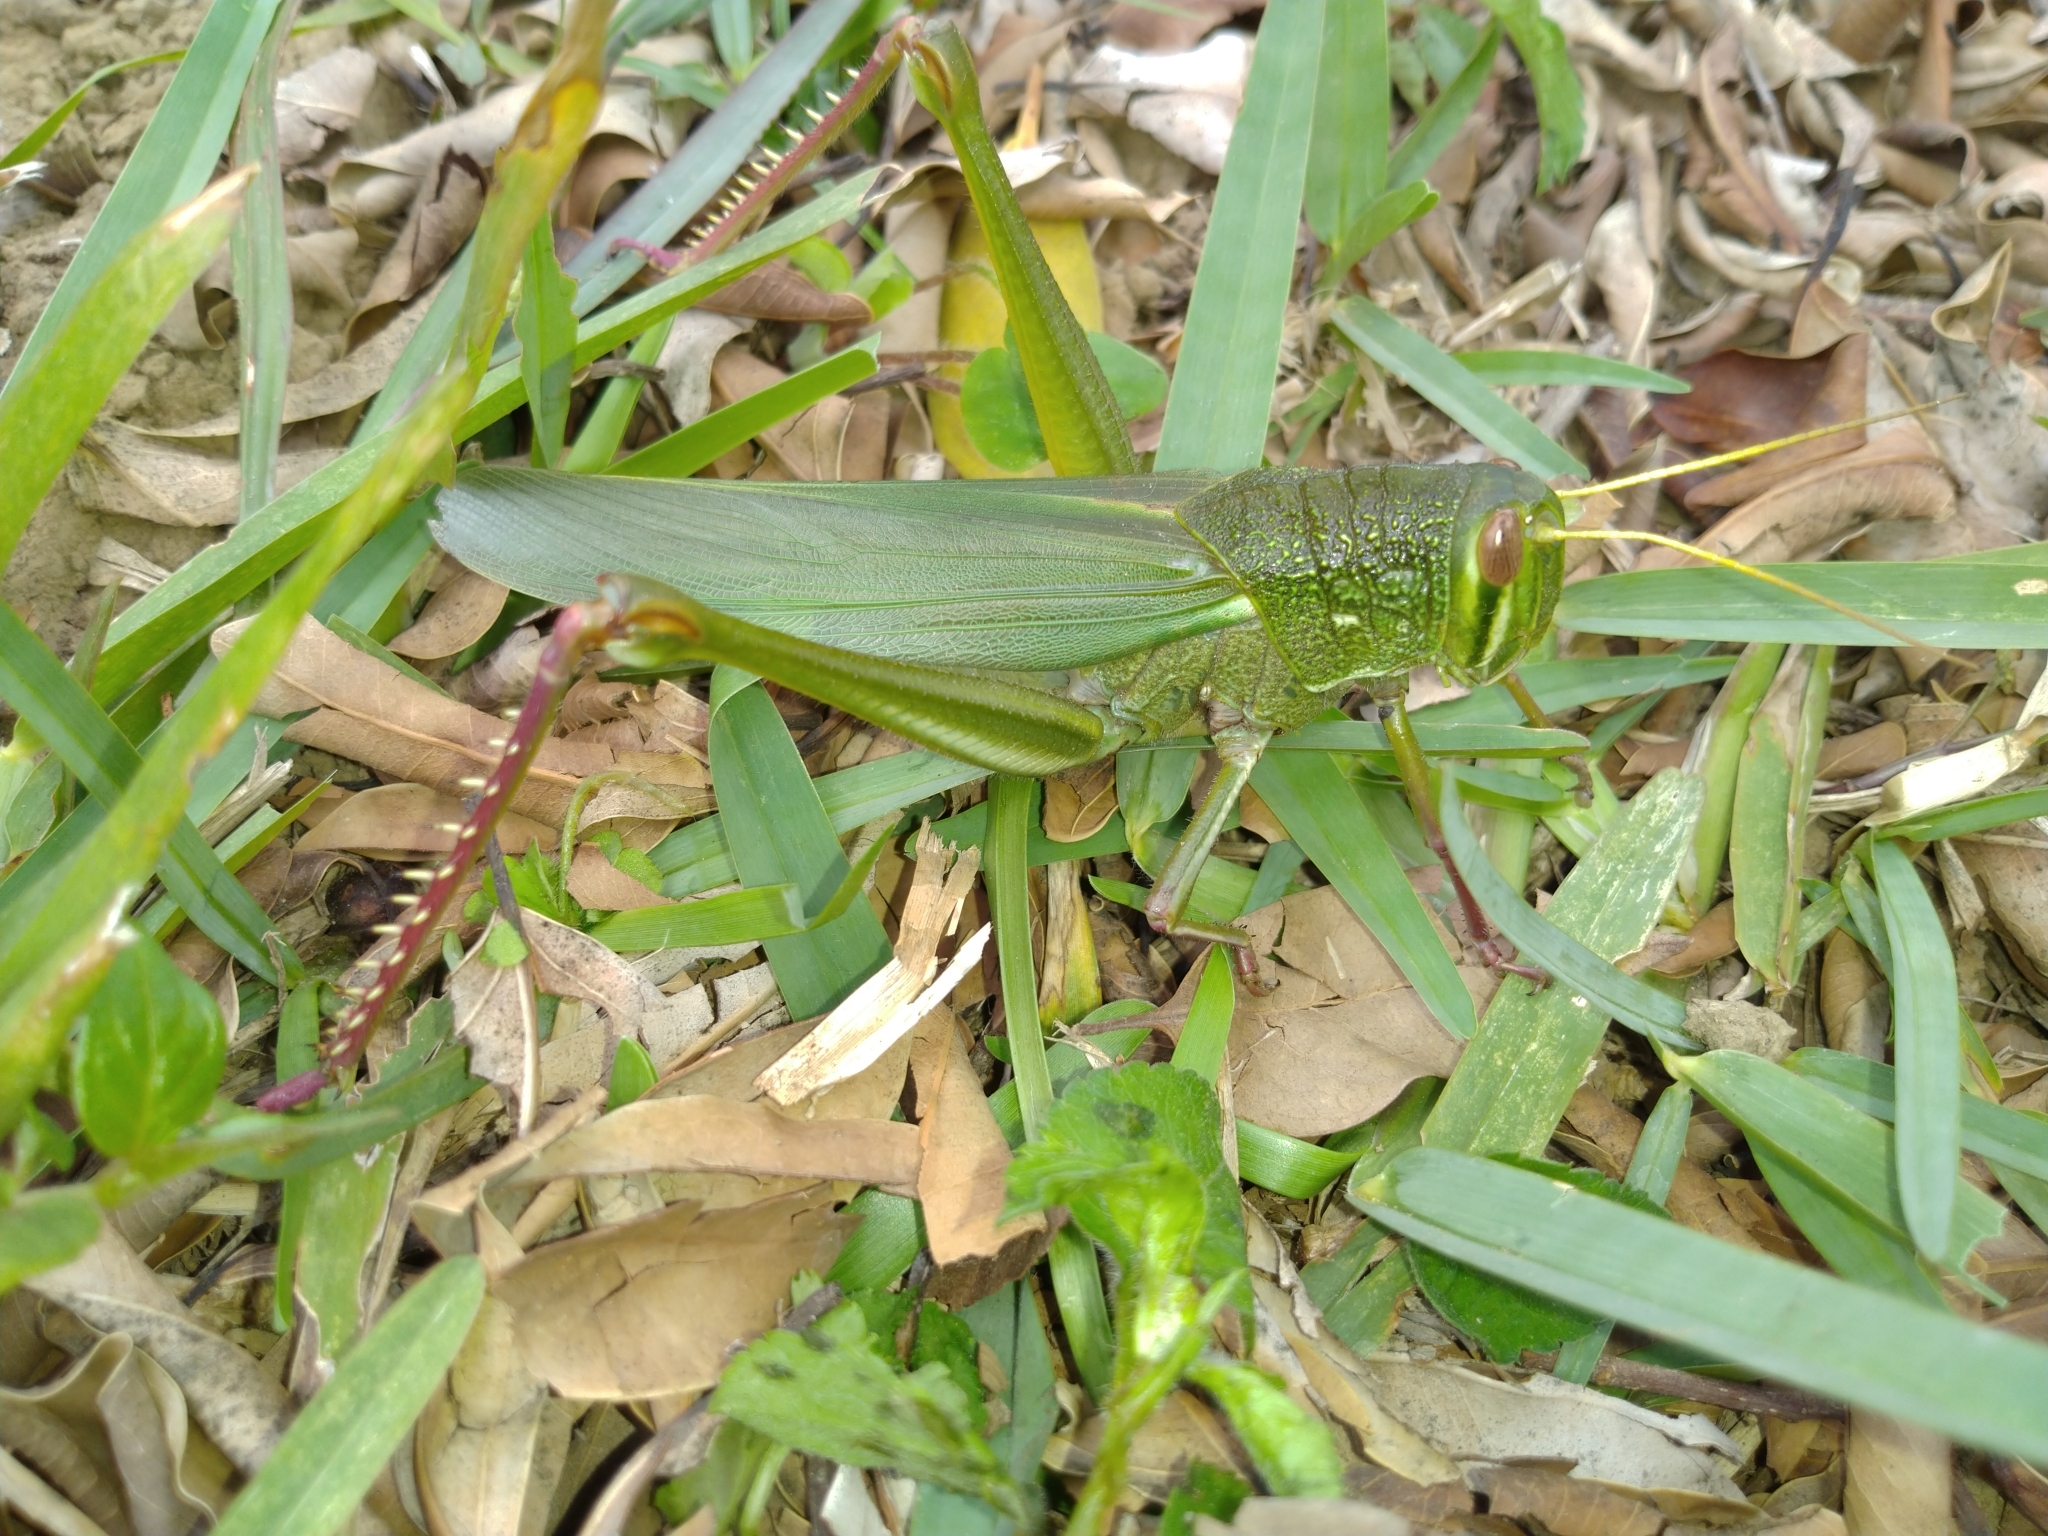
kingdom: Animalia
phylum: Arthropoda
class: Insecta
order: Orthoptera
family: Acrididae
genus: Chondracris
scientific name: Chondracris rosea
